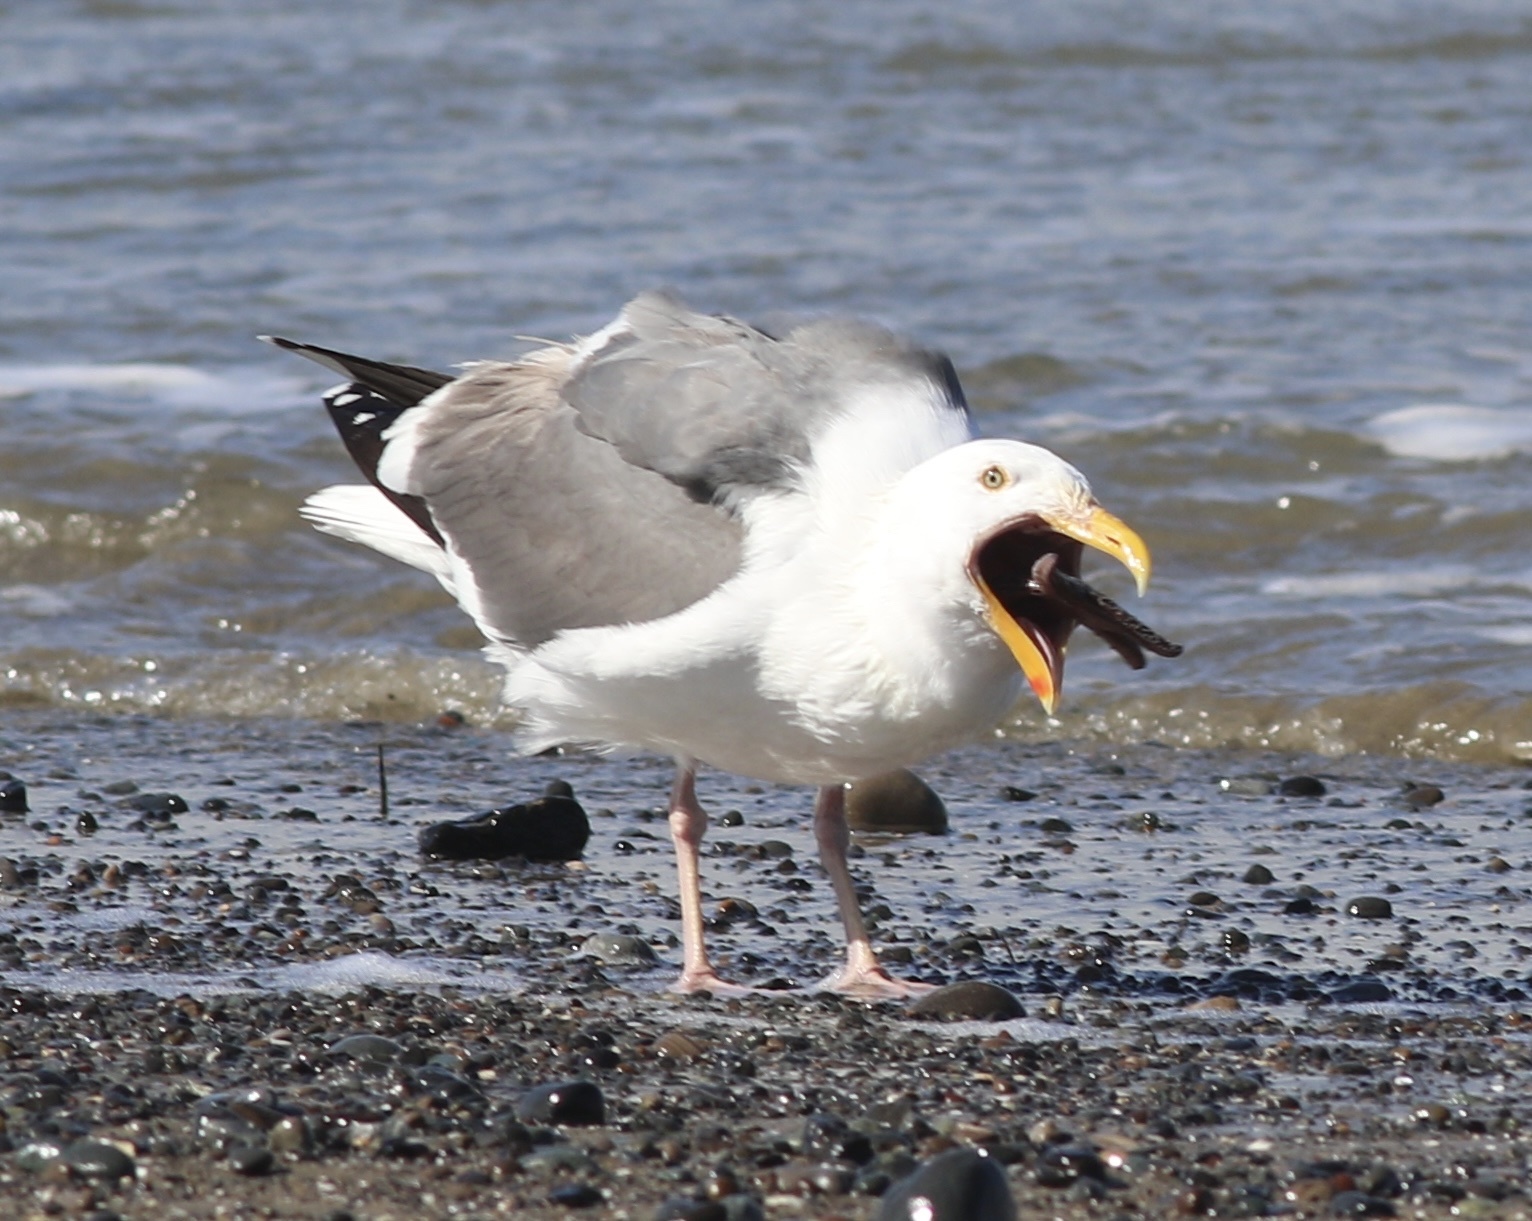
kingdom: Animalia
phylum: Chordata
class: Aves
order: Charadriiformes
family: Laridae
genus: Larus
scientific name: Larus occidentalis
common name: Western gull
